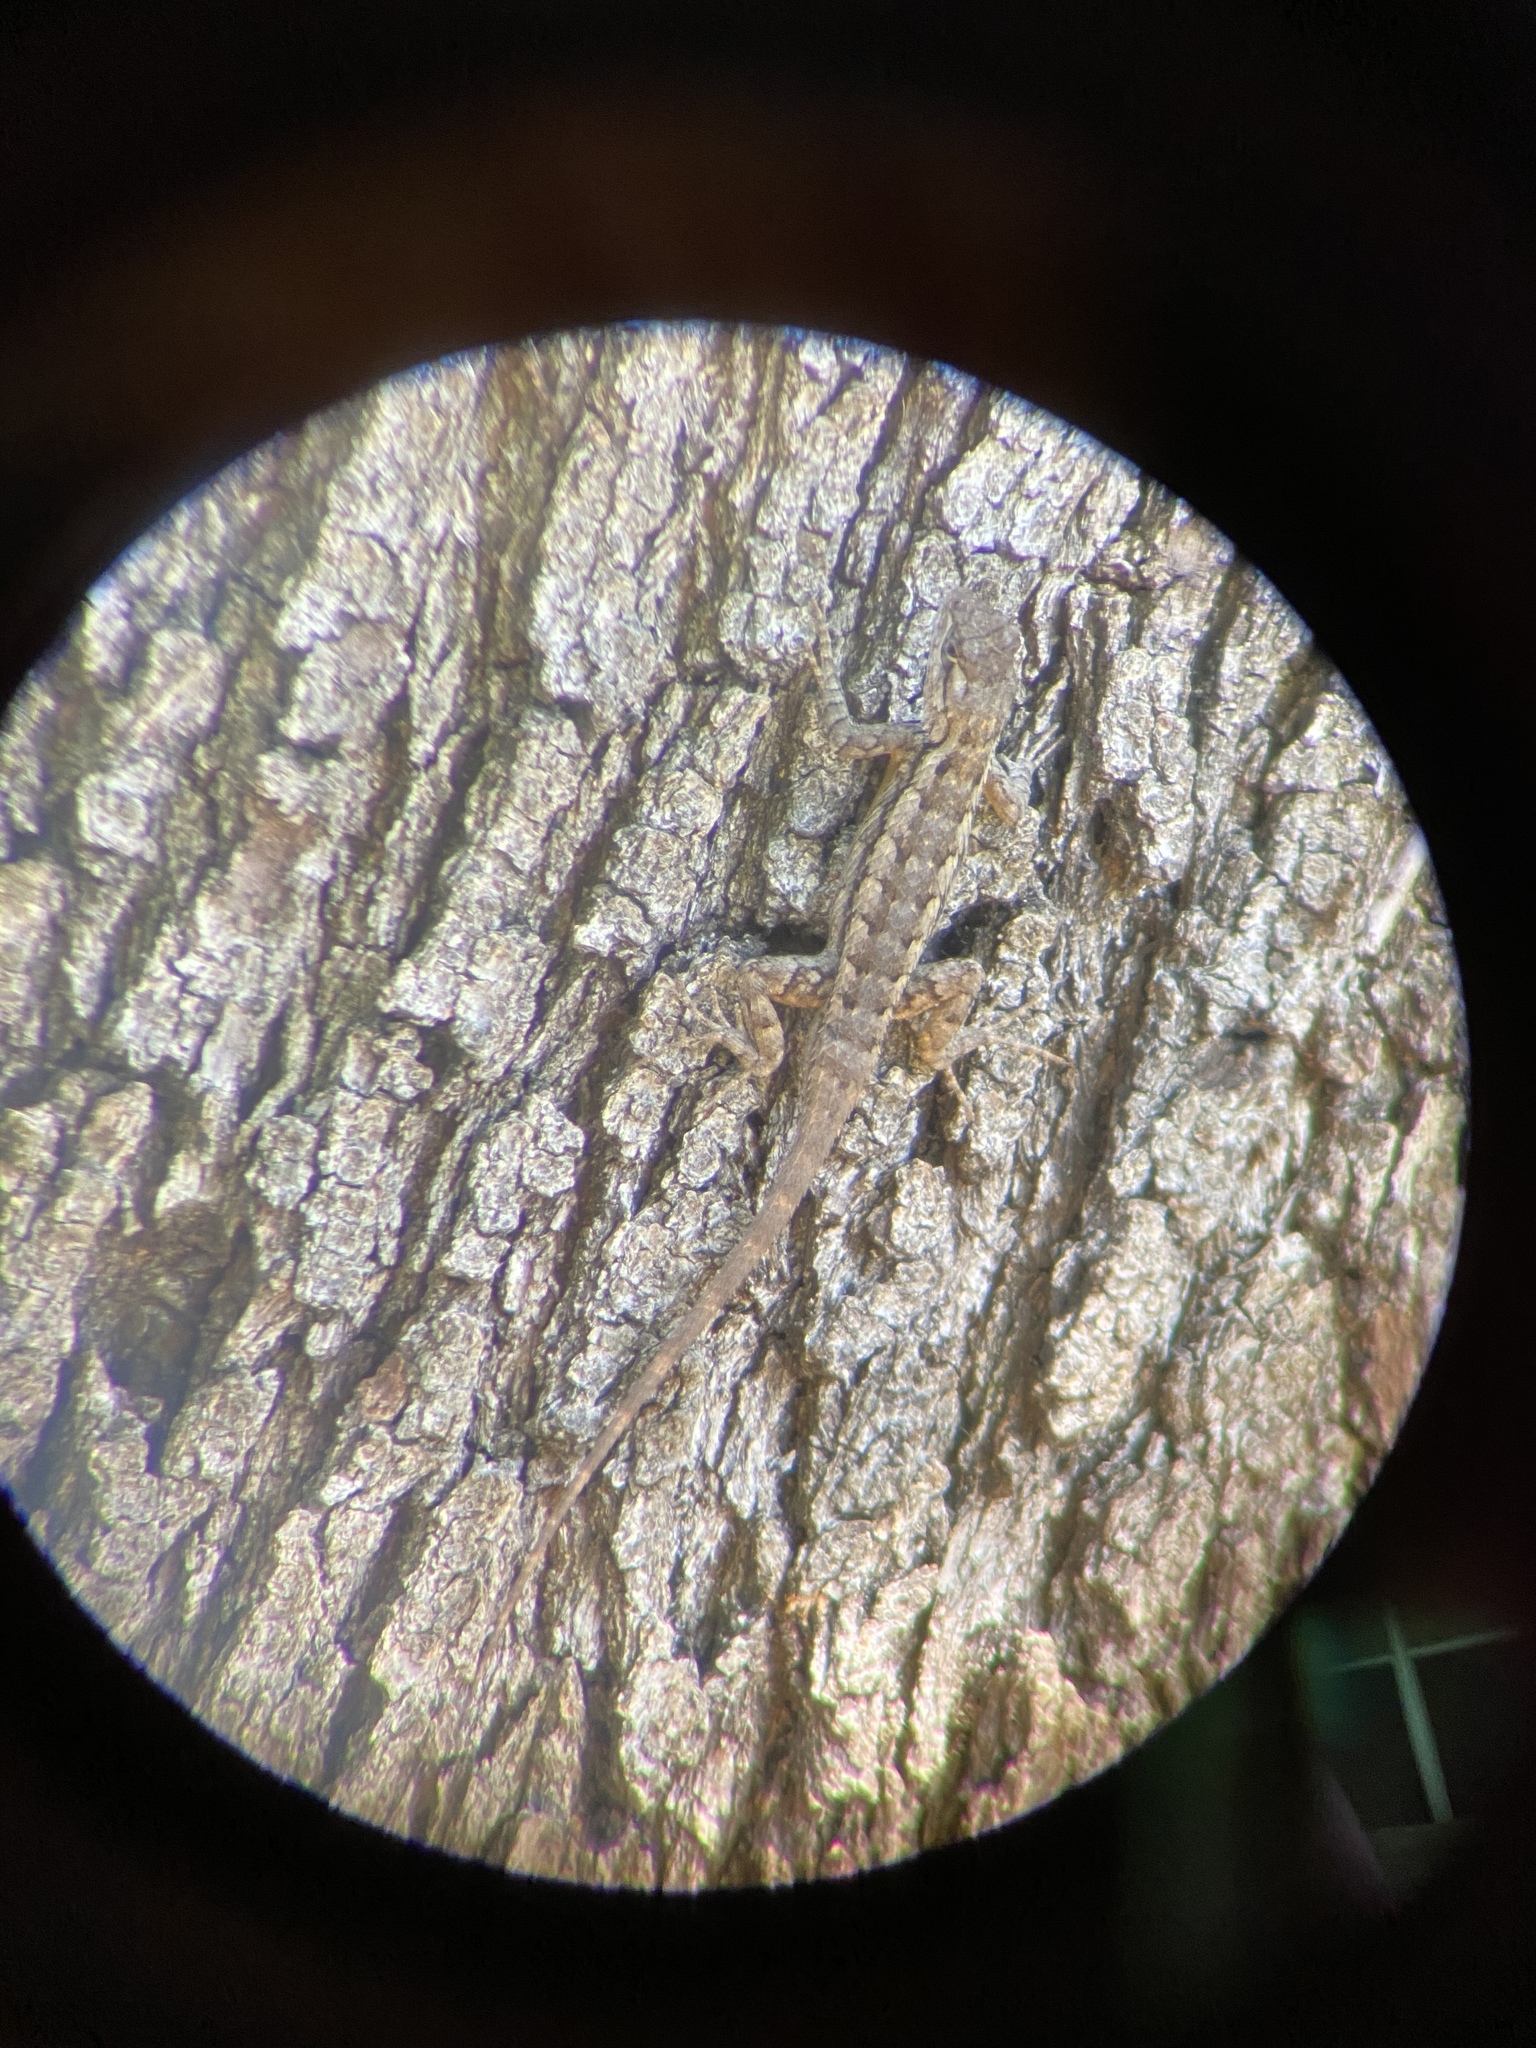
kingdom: Animalia
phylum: Chordata
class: Squamata
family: Phrynosomatidae
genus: Sceloporus
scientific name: Sceloporus olivaceus
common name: Texas spiny lizard
